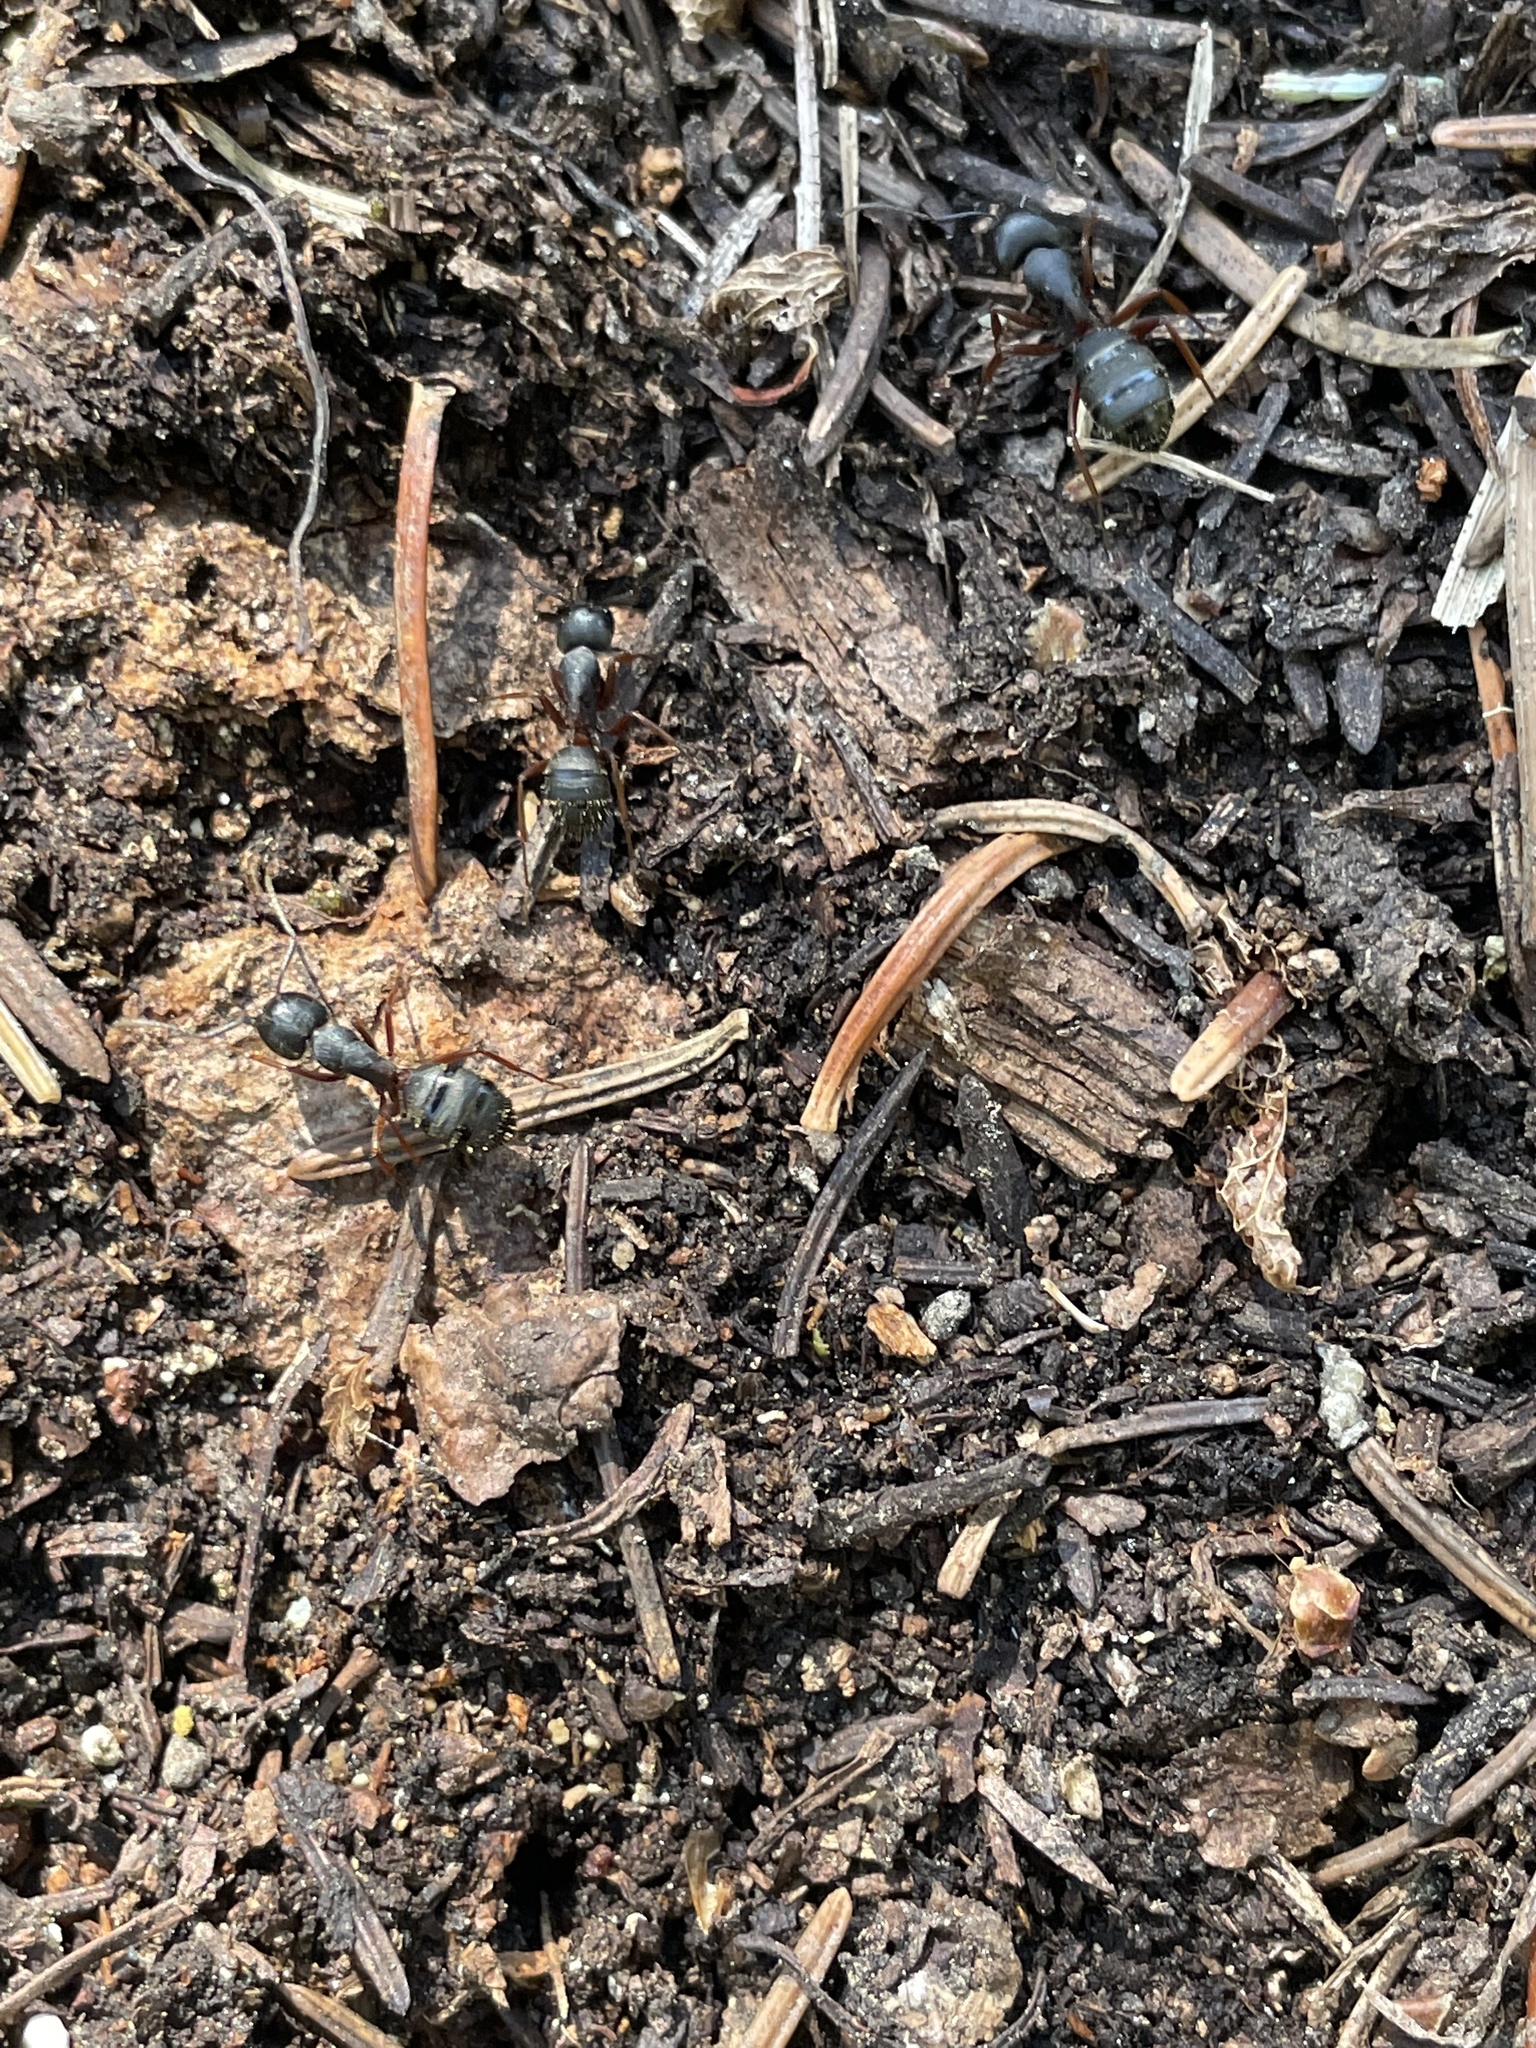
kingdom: Animalia
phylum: Arthropoda
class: Insecta
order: Hymenoptera
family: Formicidae
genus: Camponotus
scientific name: Camponotus modoc
